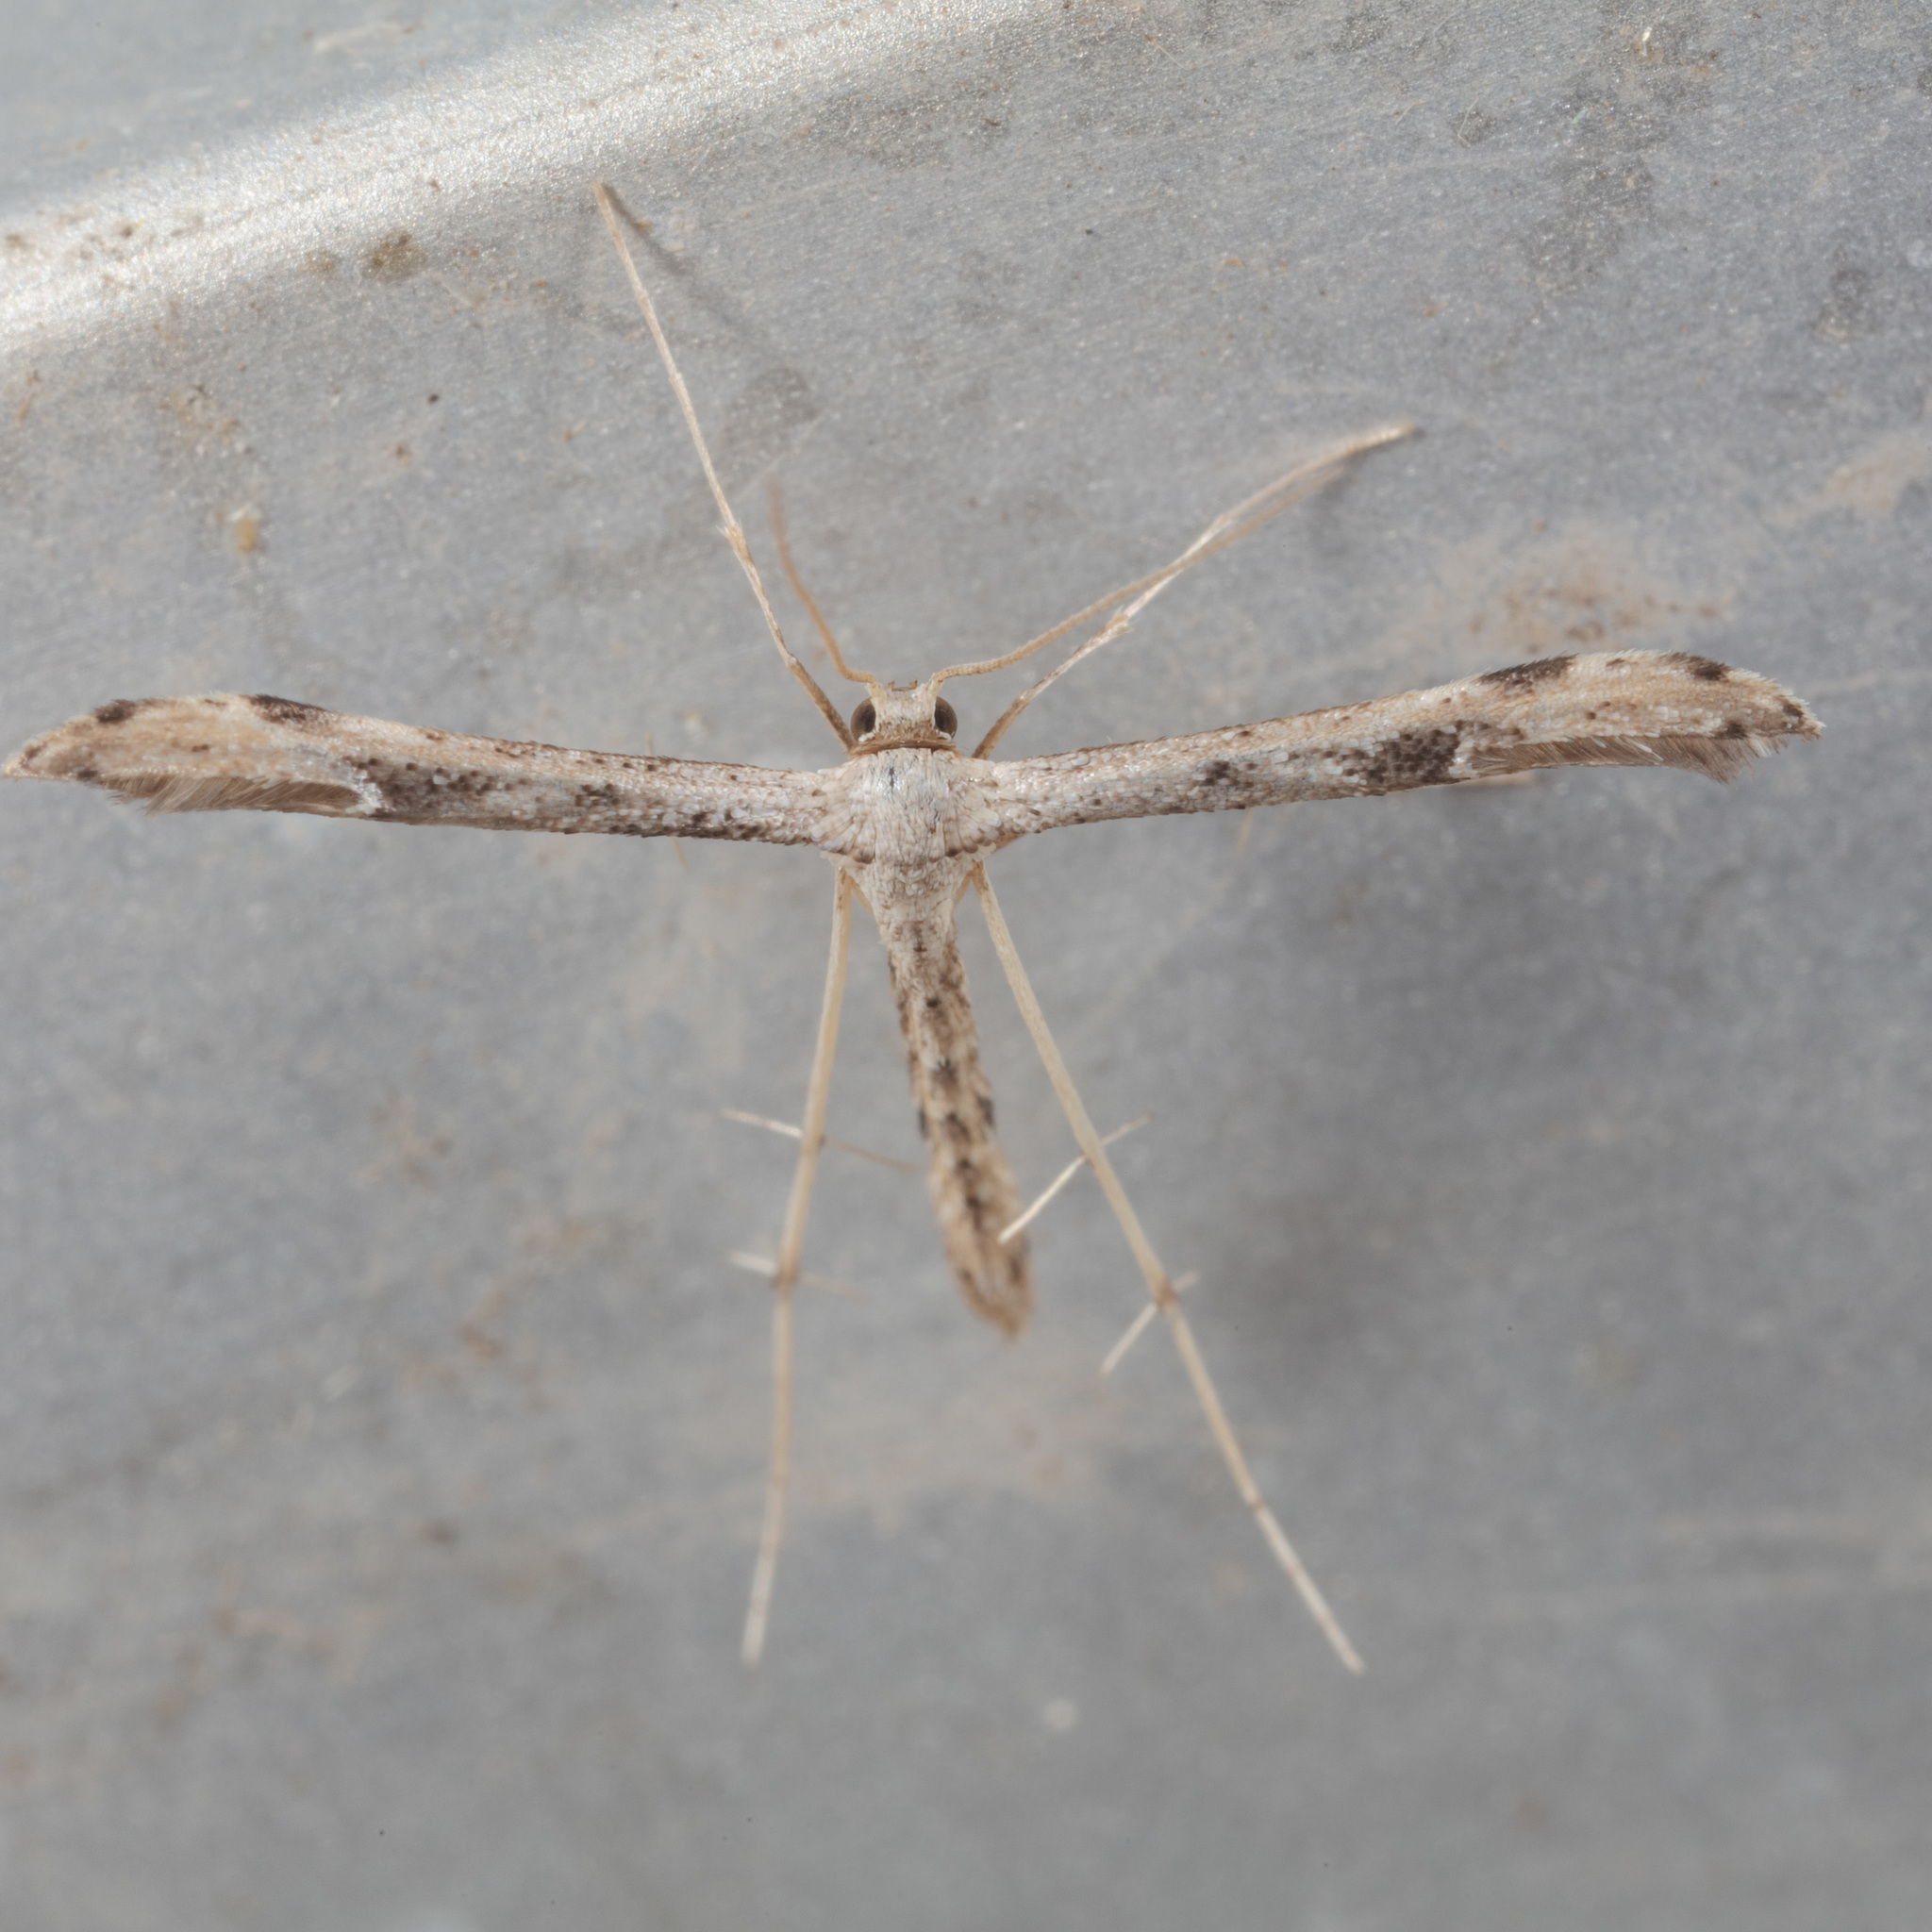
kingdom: Animalia
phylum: Arthropoda
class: Insecta
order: Lepidoptera
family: Pterophoridae
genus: Adaina
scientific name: Adaina ambrosiae
